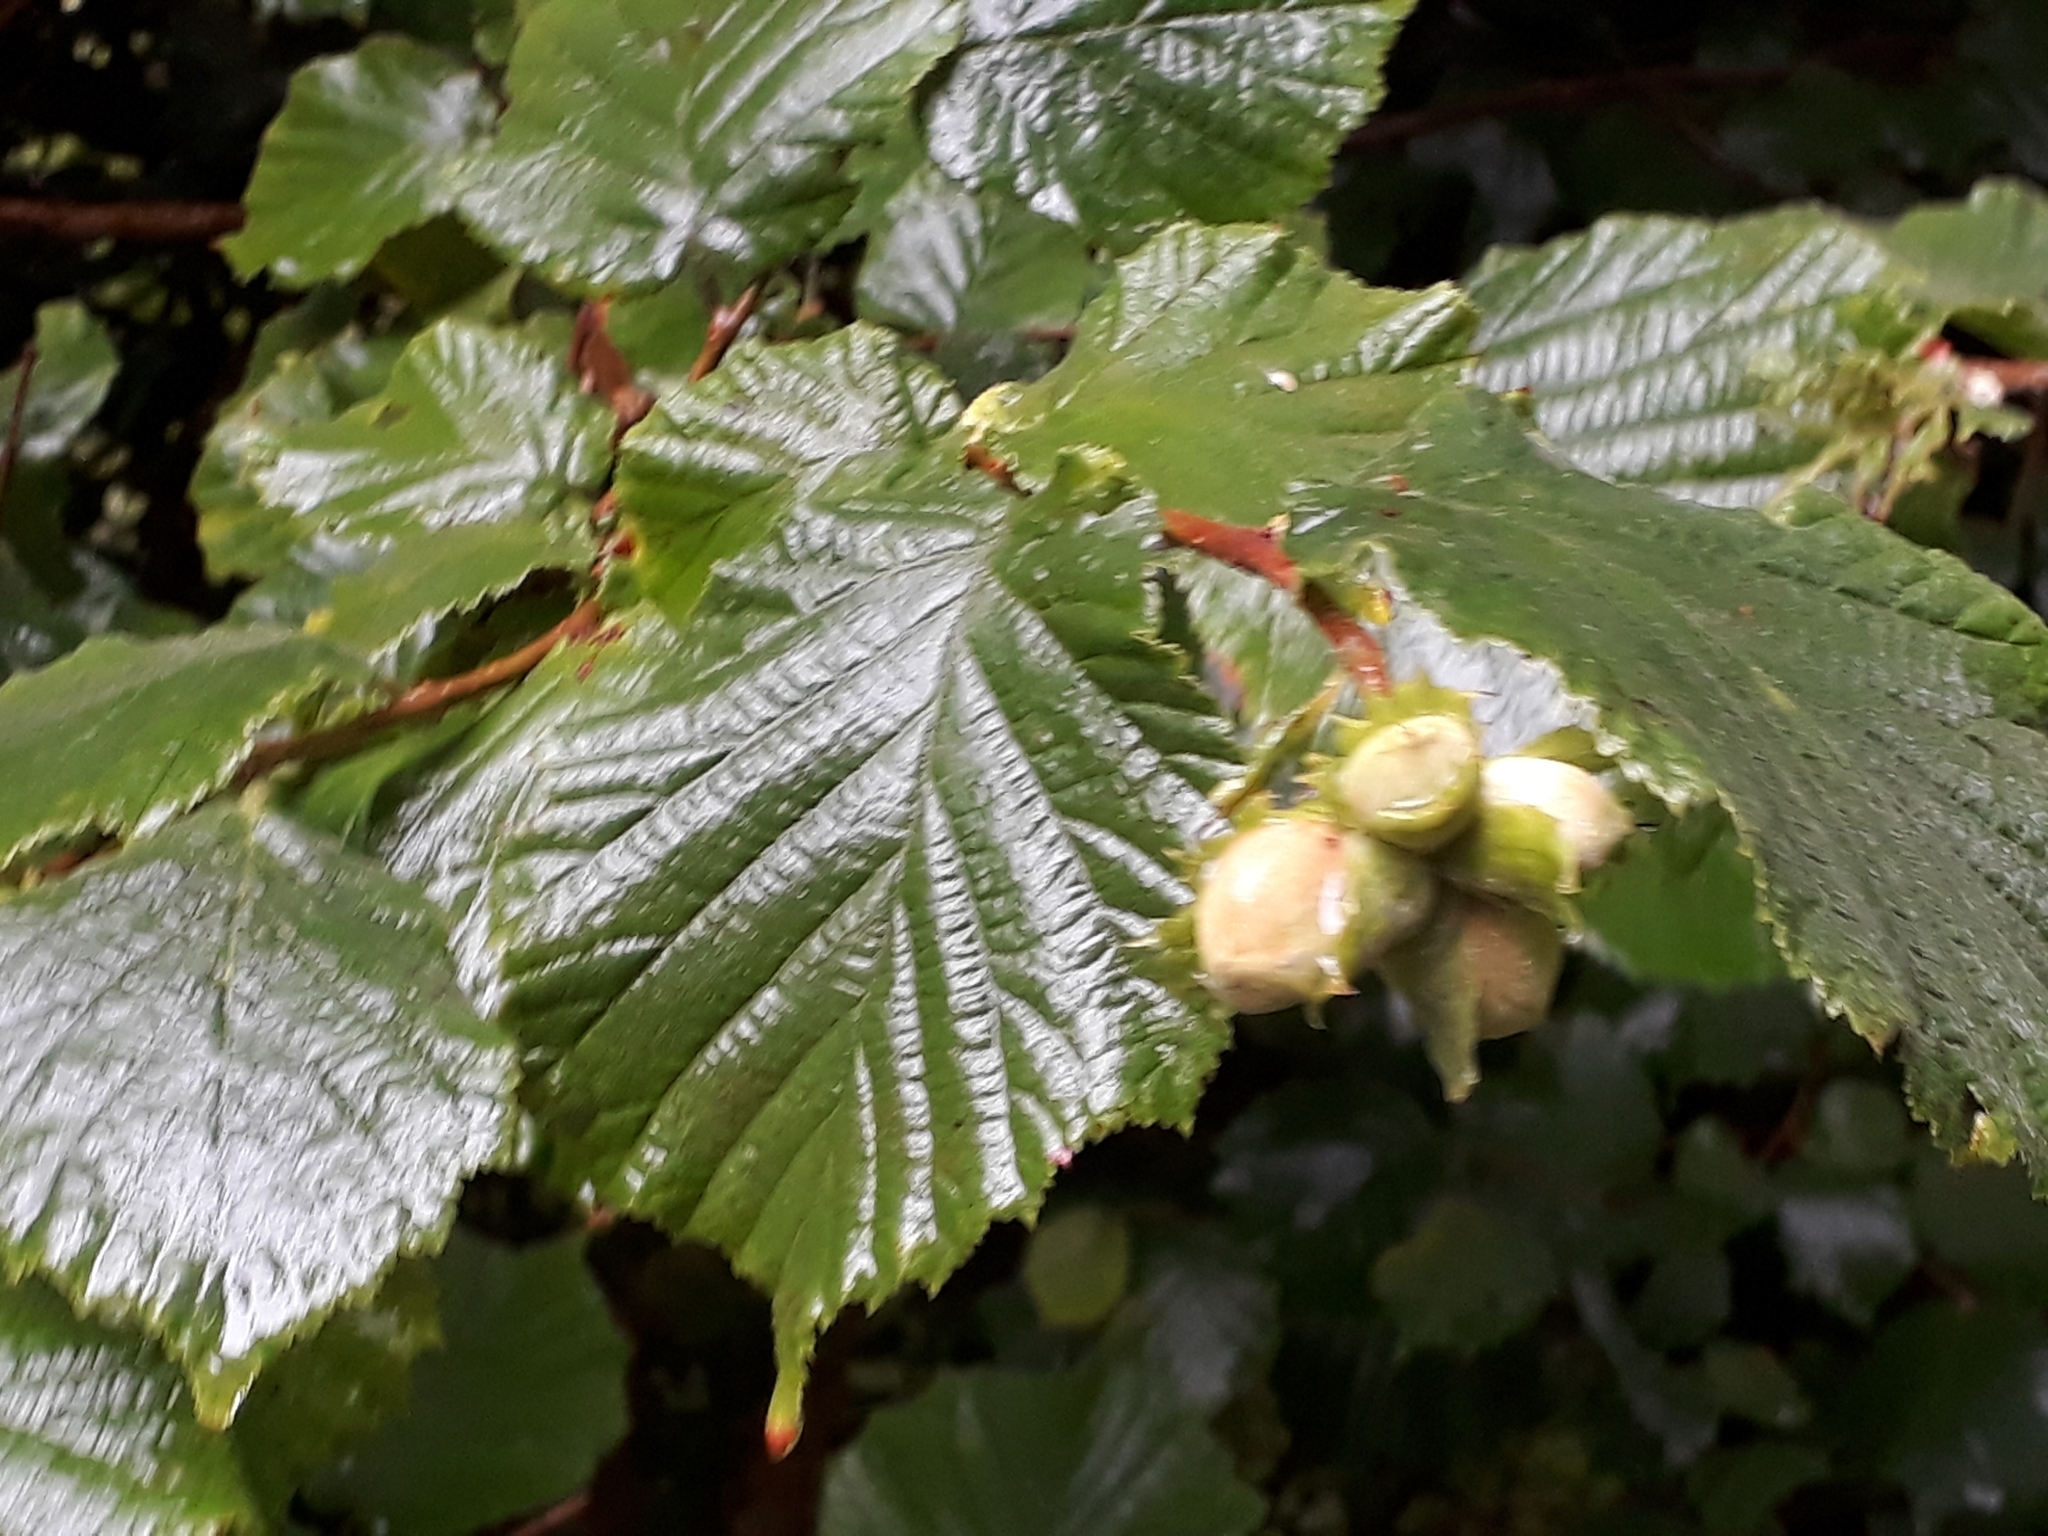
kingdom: Plantae
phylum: Tracheophyta
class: Magnoliopsida
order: Fagales
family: Betulaceae
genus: Corylus
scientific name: Corylus avellana
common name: European hazel
